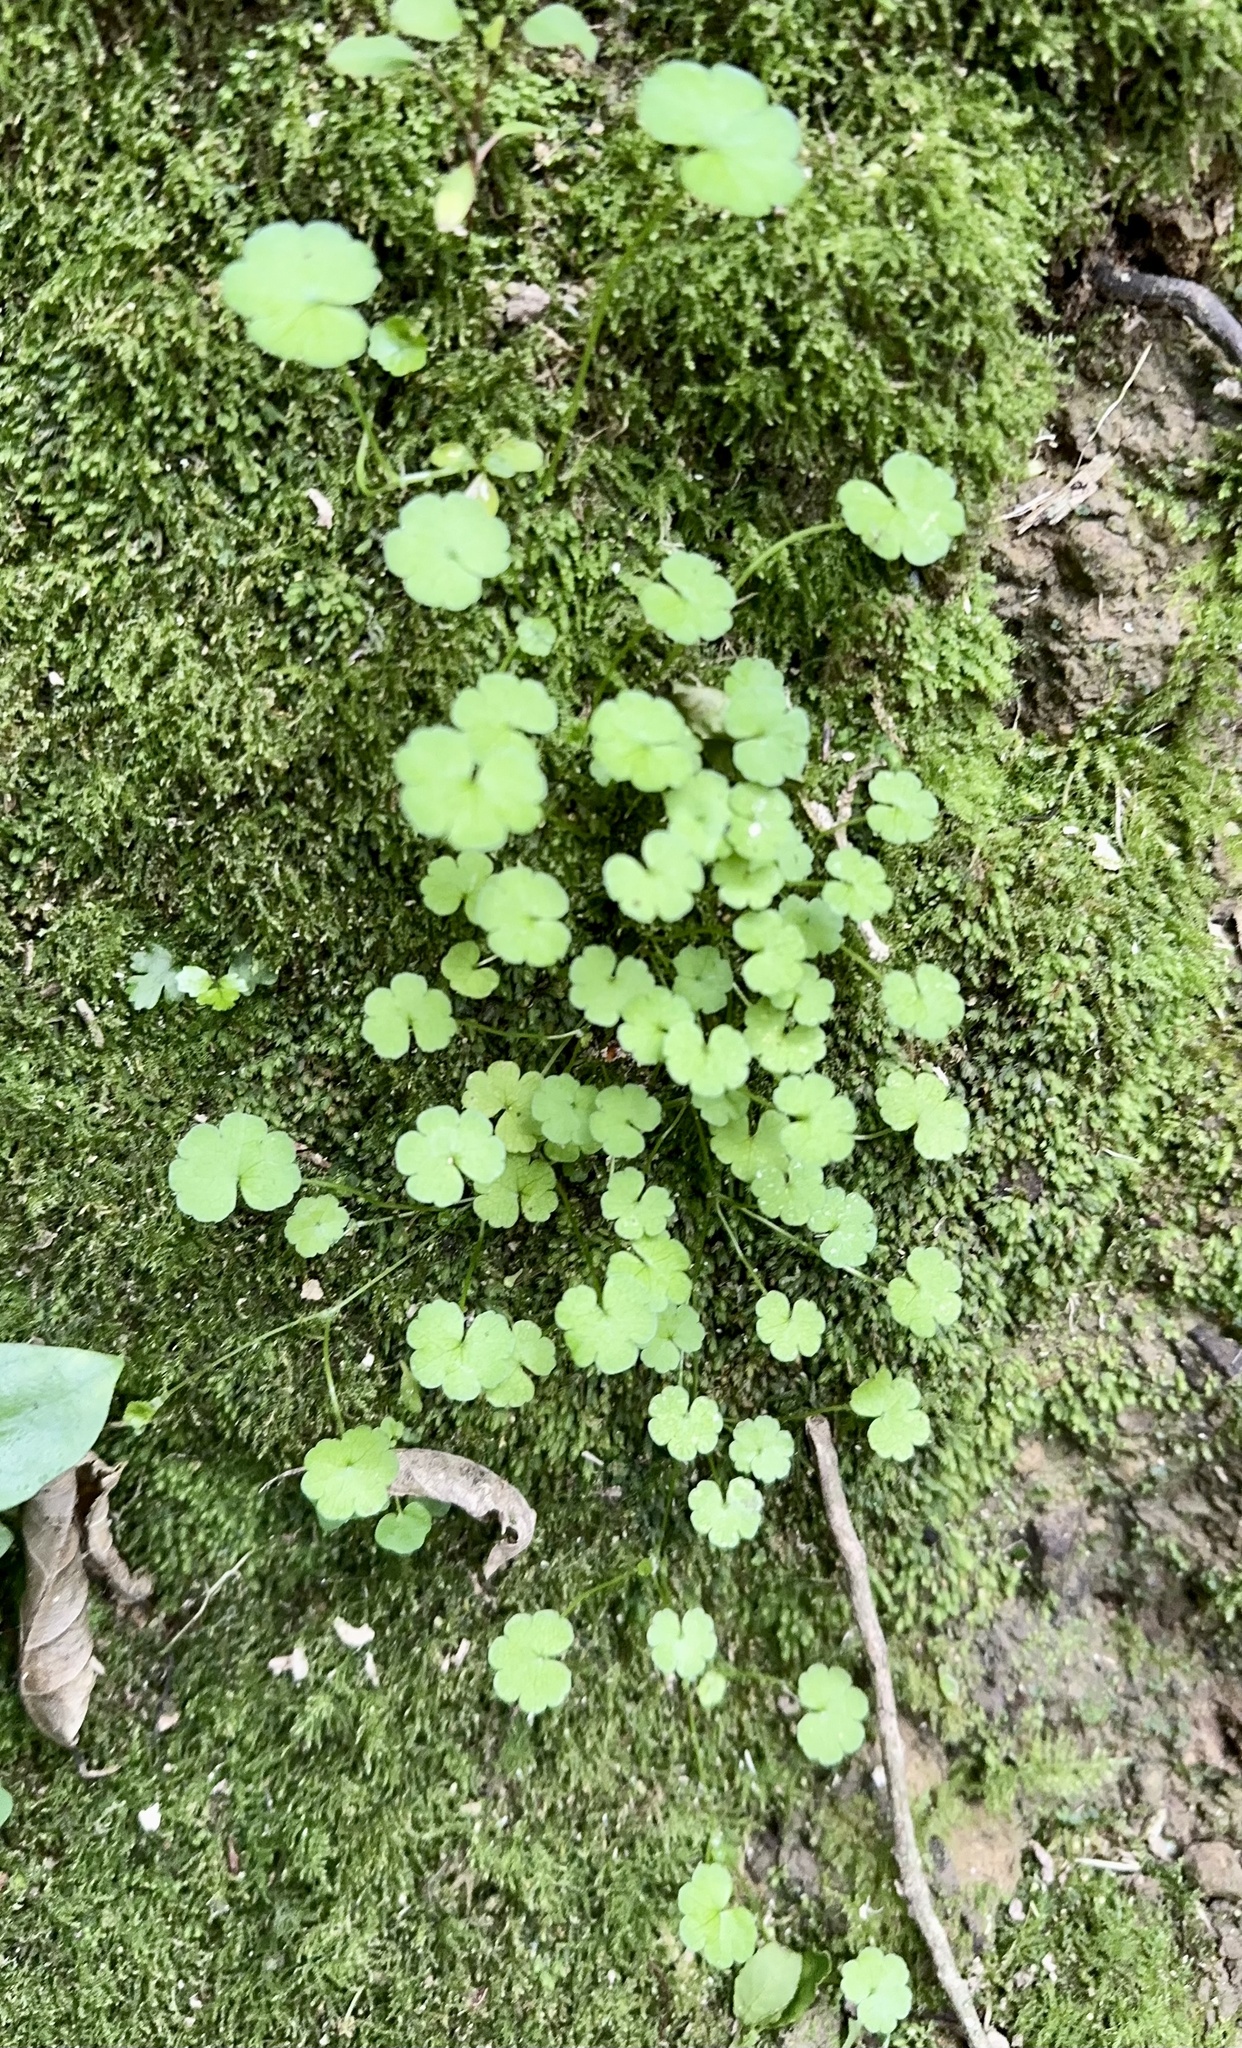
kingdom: Plantae
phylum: Tracheophyta
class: Magnoliopsida
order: Apiales
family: Araliaceae
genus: Hydrocotyle
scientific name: Hydrocotyle heteromeria
